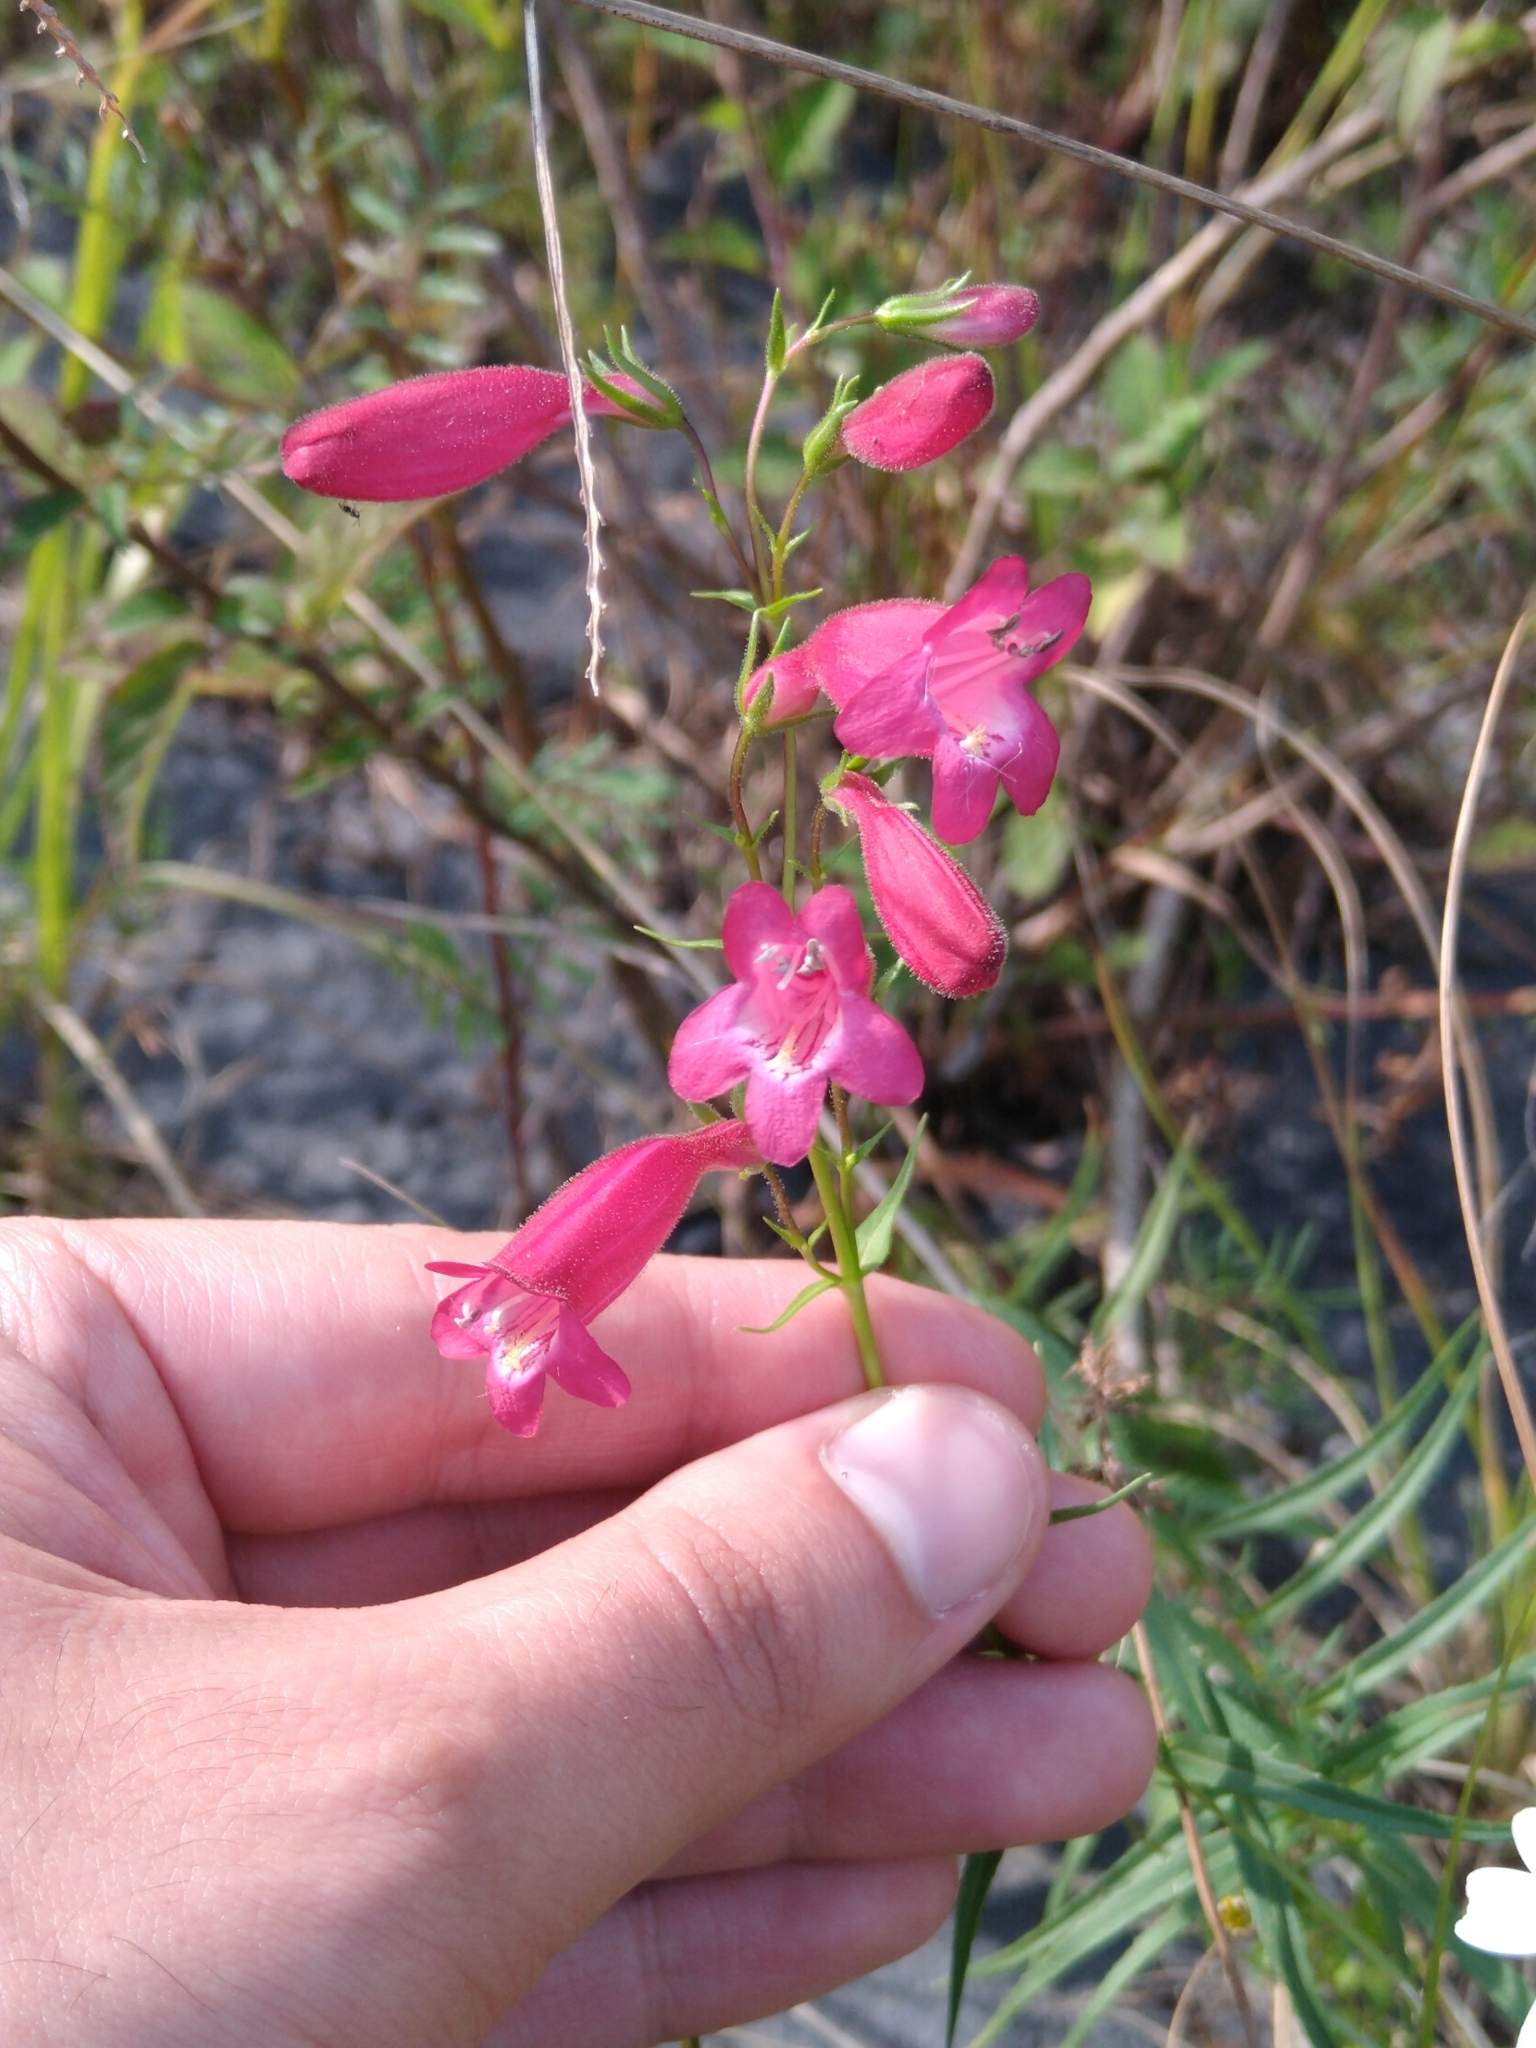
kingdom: Plantae
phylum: Tracheophyta
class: Magnoliopsida
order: Lamiales
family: Plantaginaceae
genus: Penstemon
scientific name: Penstemon roseus
